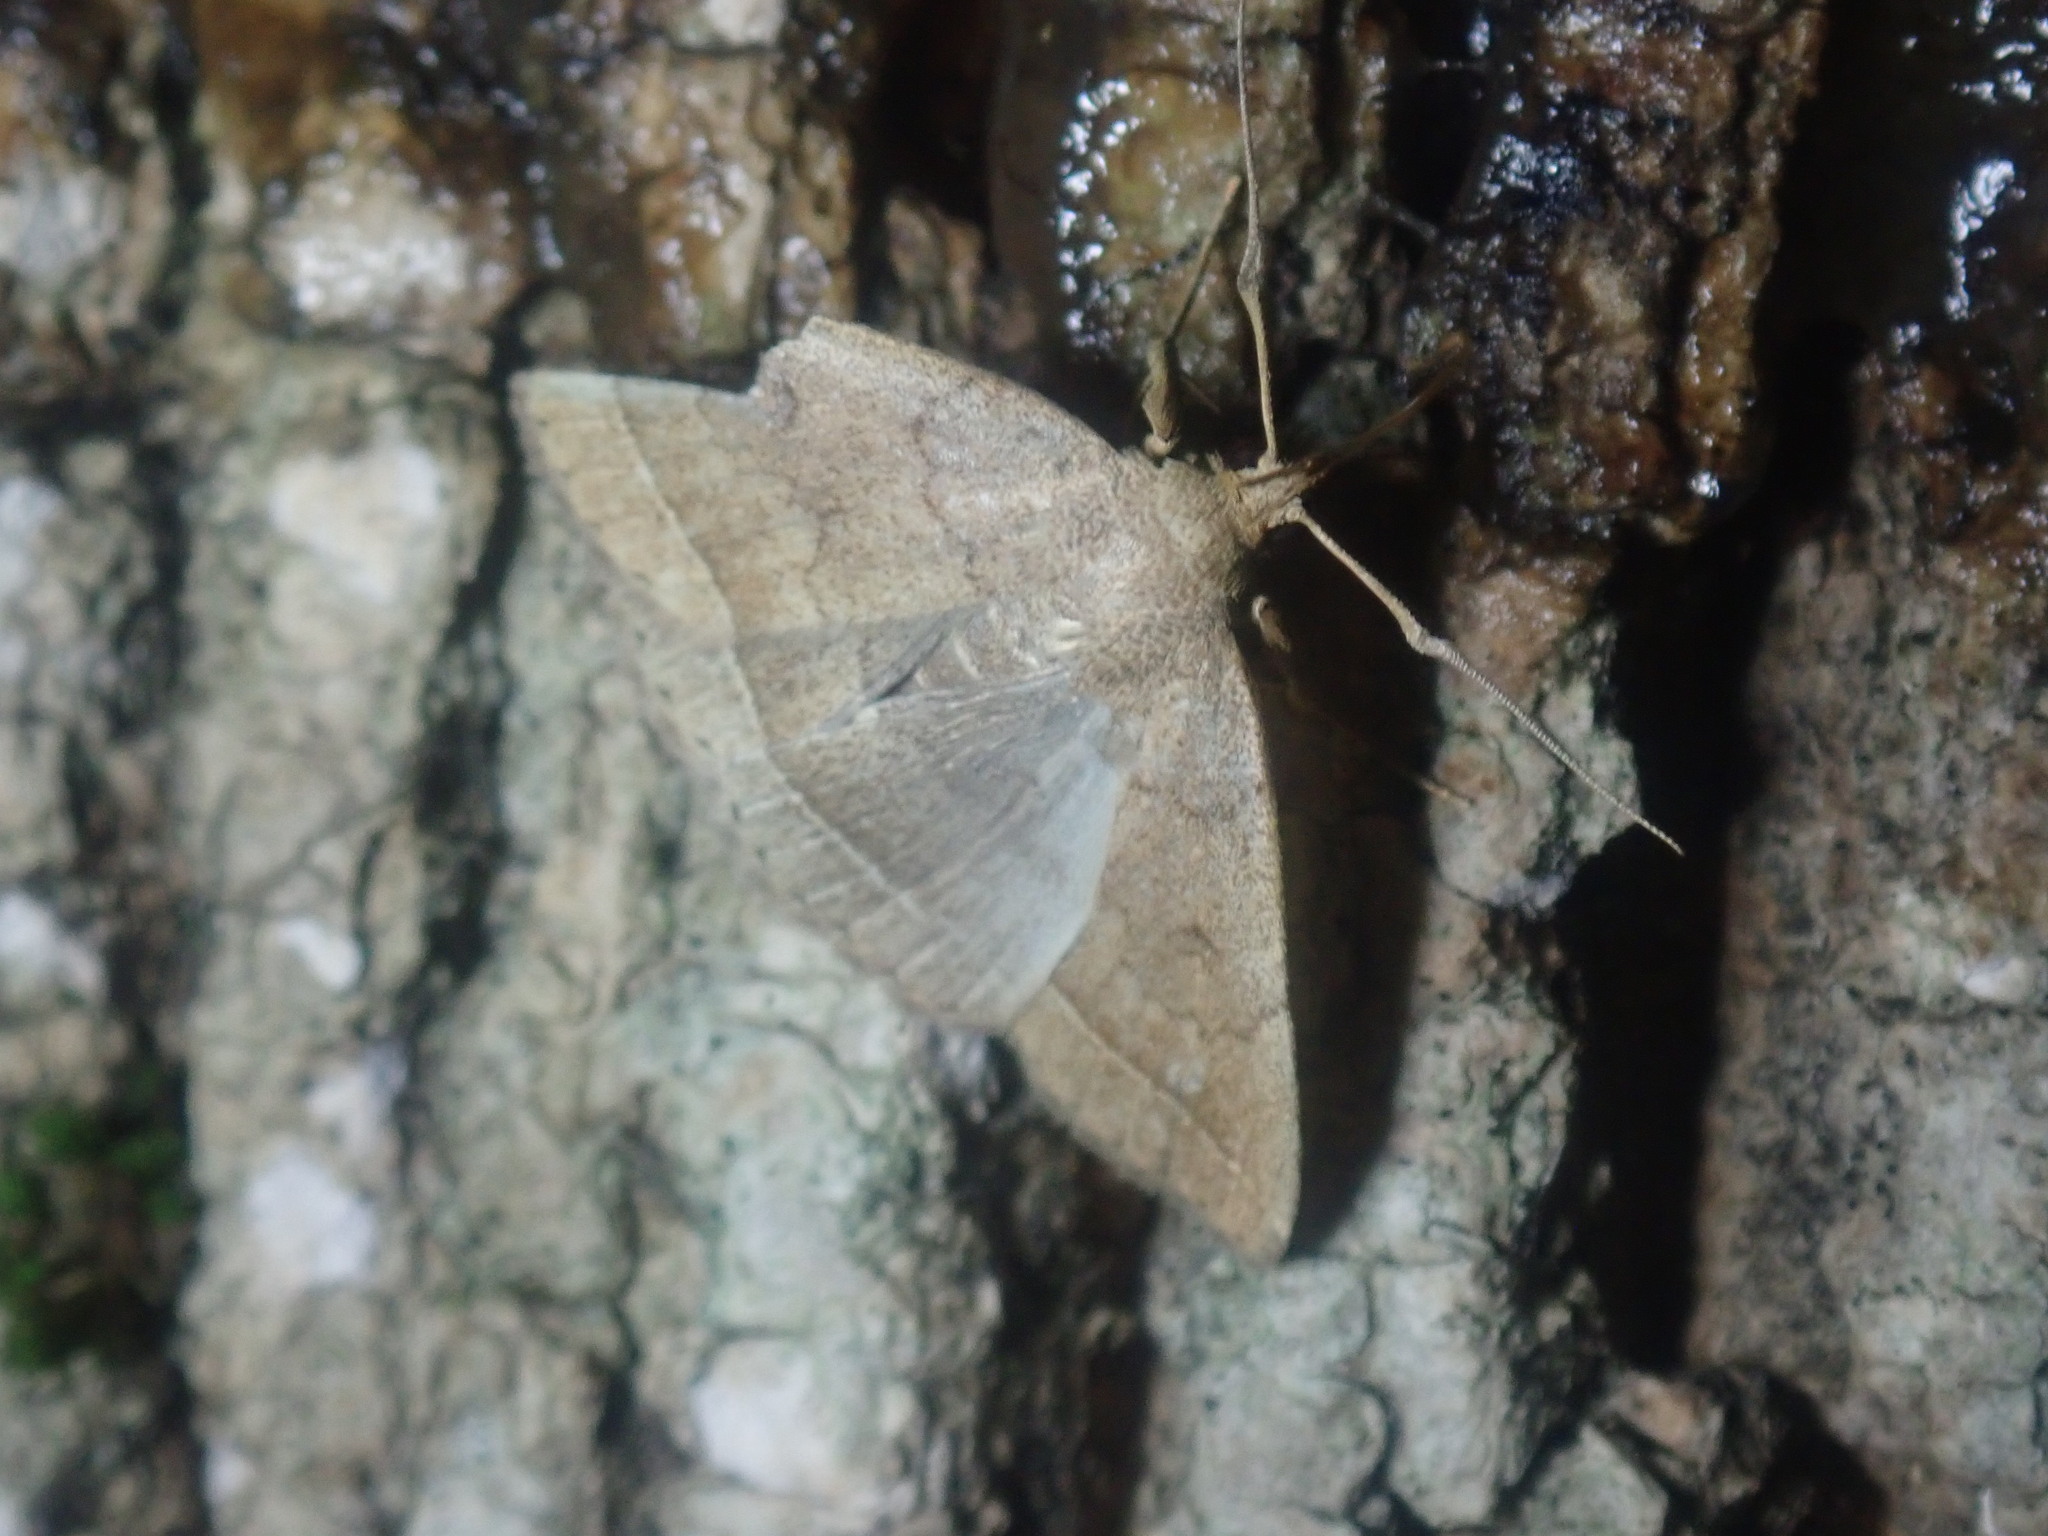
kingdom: Animalia
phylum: Arthropoda
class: Insecta
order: Lepidoptera
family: Erebidae
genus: Zanclognatha
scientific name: Zanclognatha jacchusalis
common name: Yellowish zanclognatha
